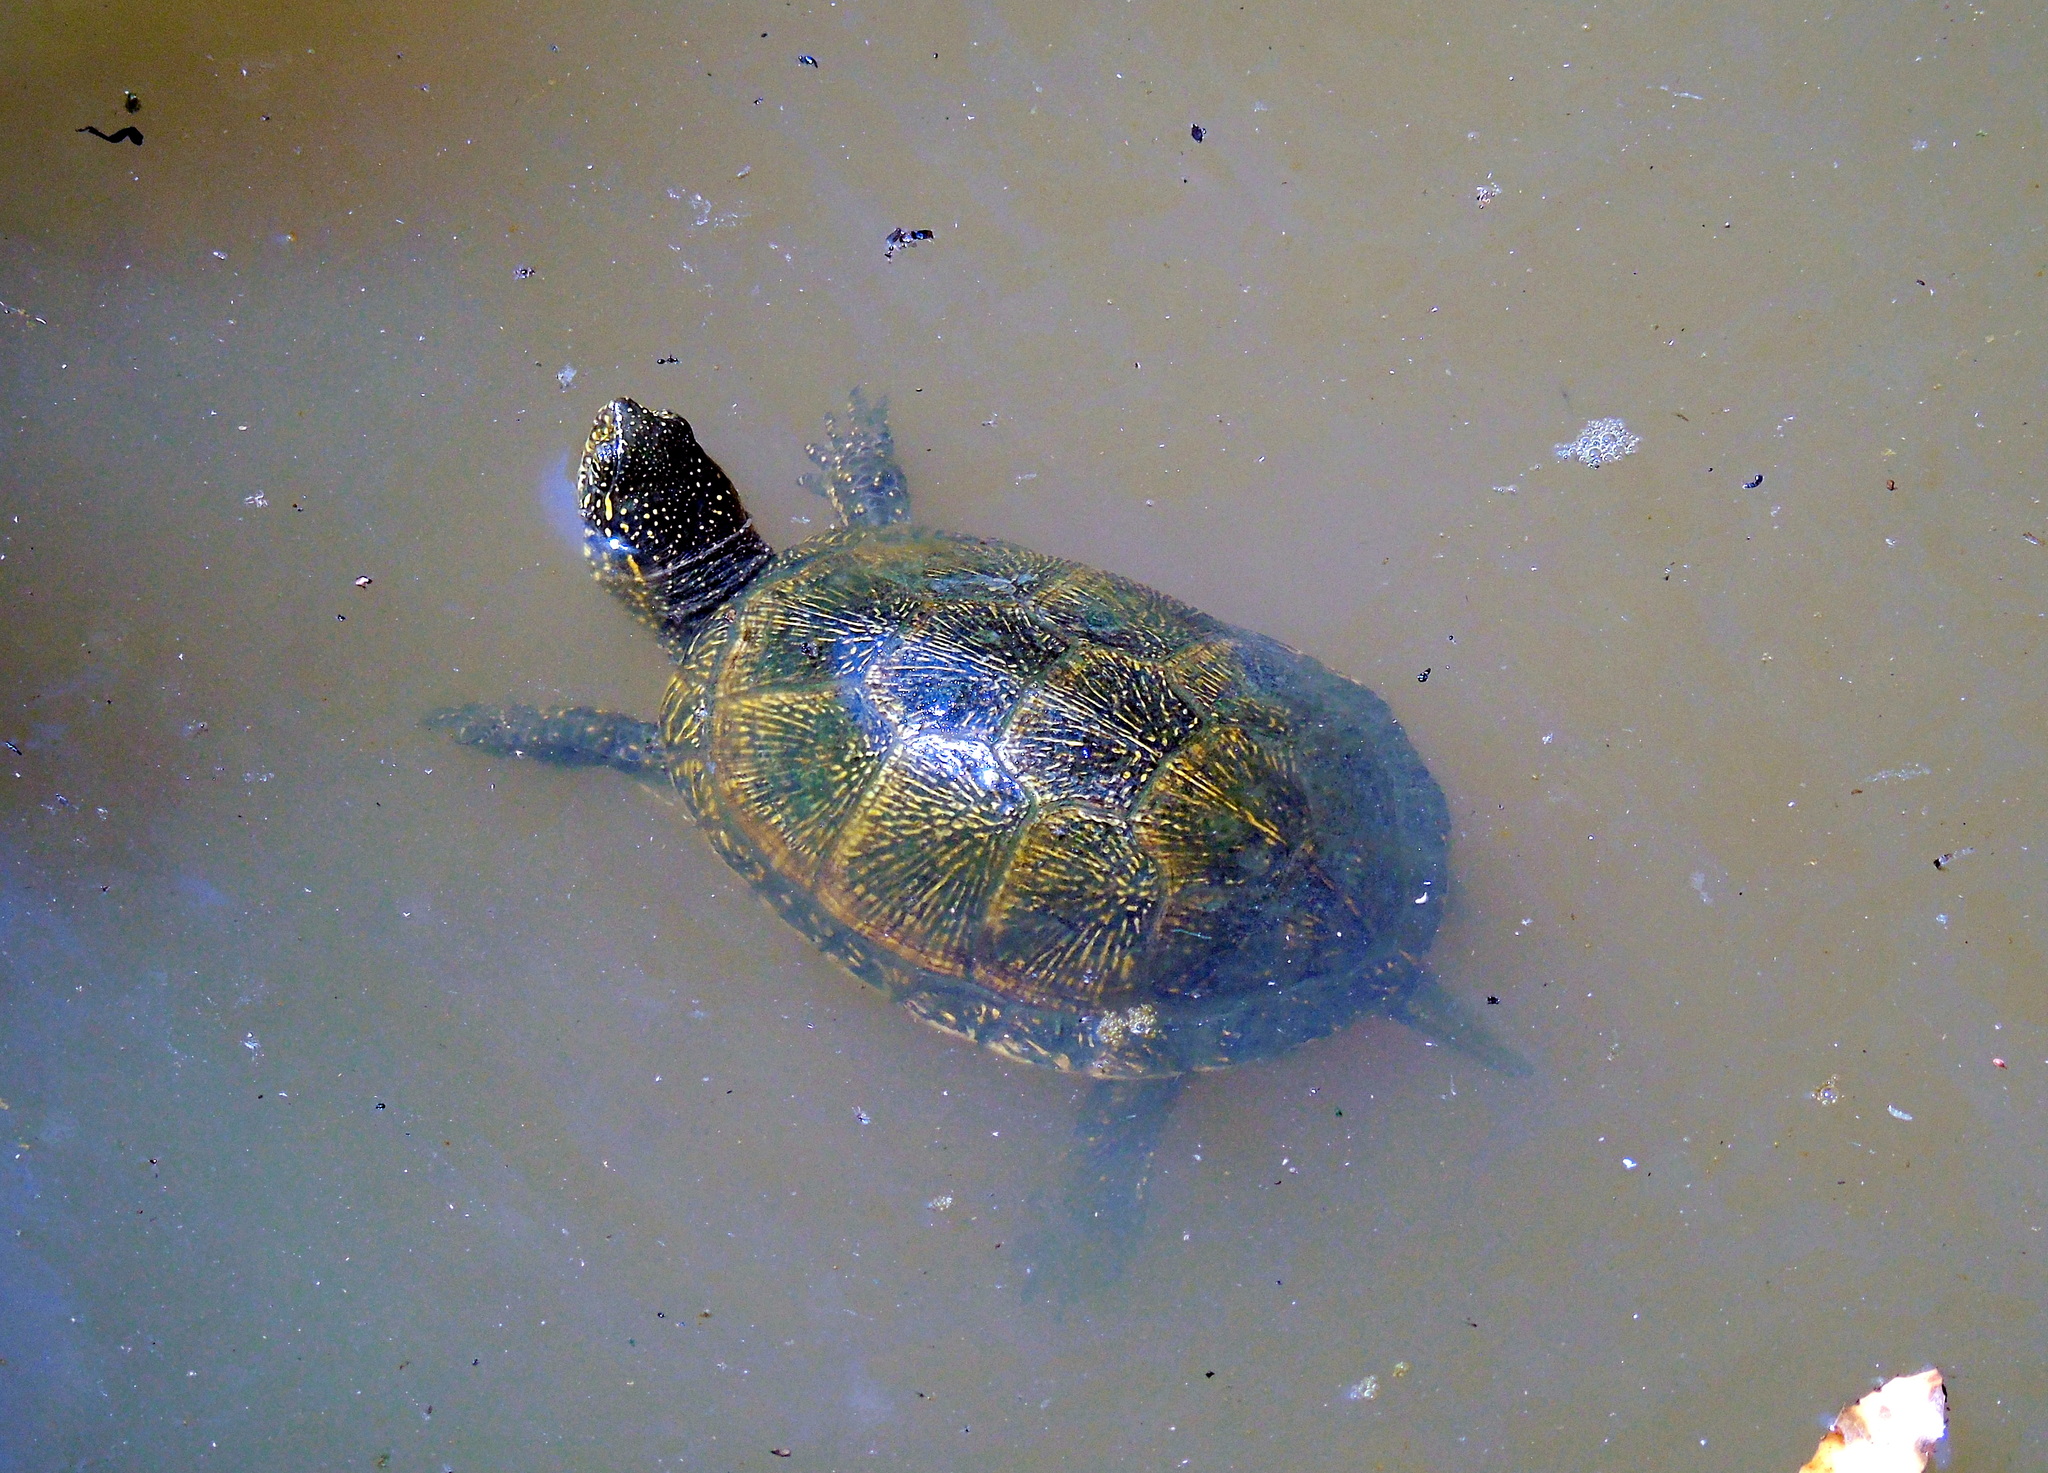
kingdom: Animalia
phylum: Chordata
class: Testudines
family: Emydidae
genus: Emys
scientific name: Emys orbicularis
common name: European pond turtle
